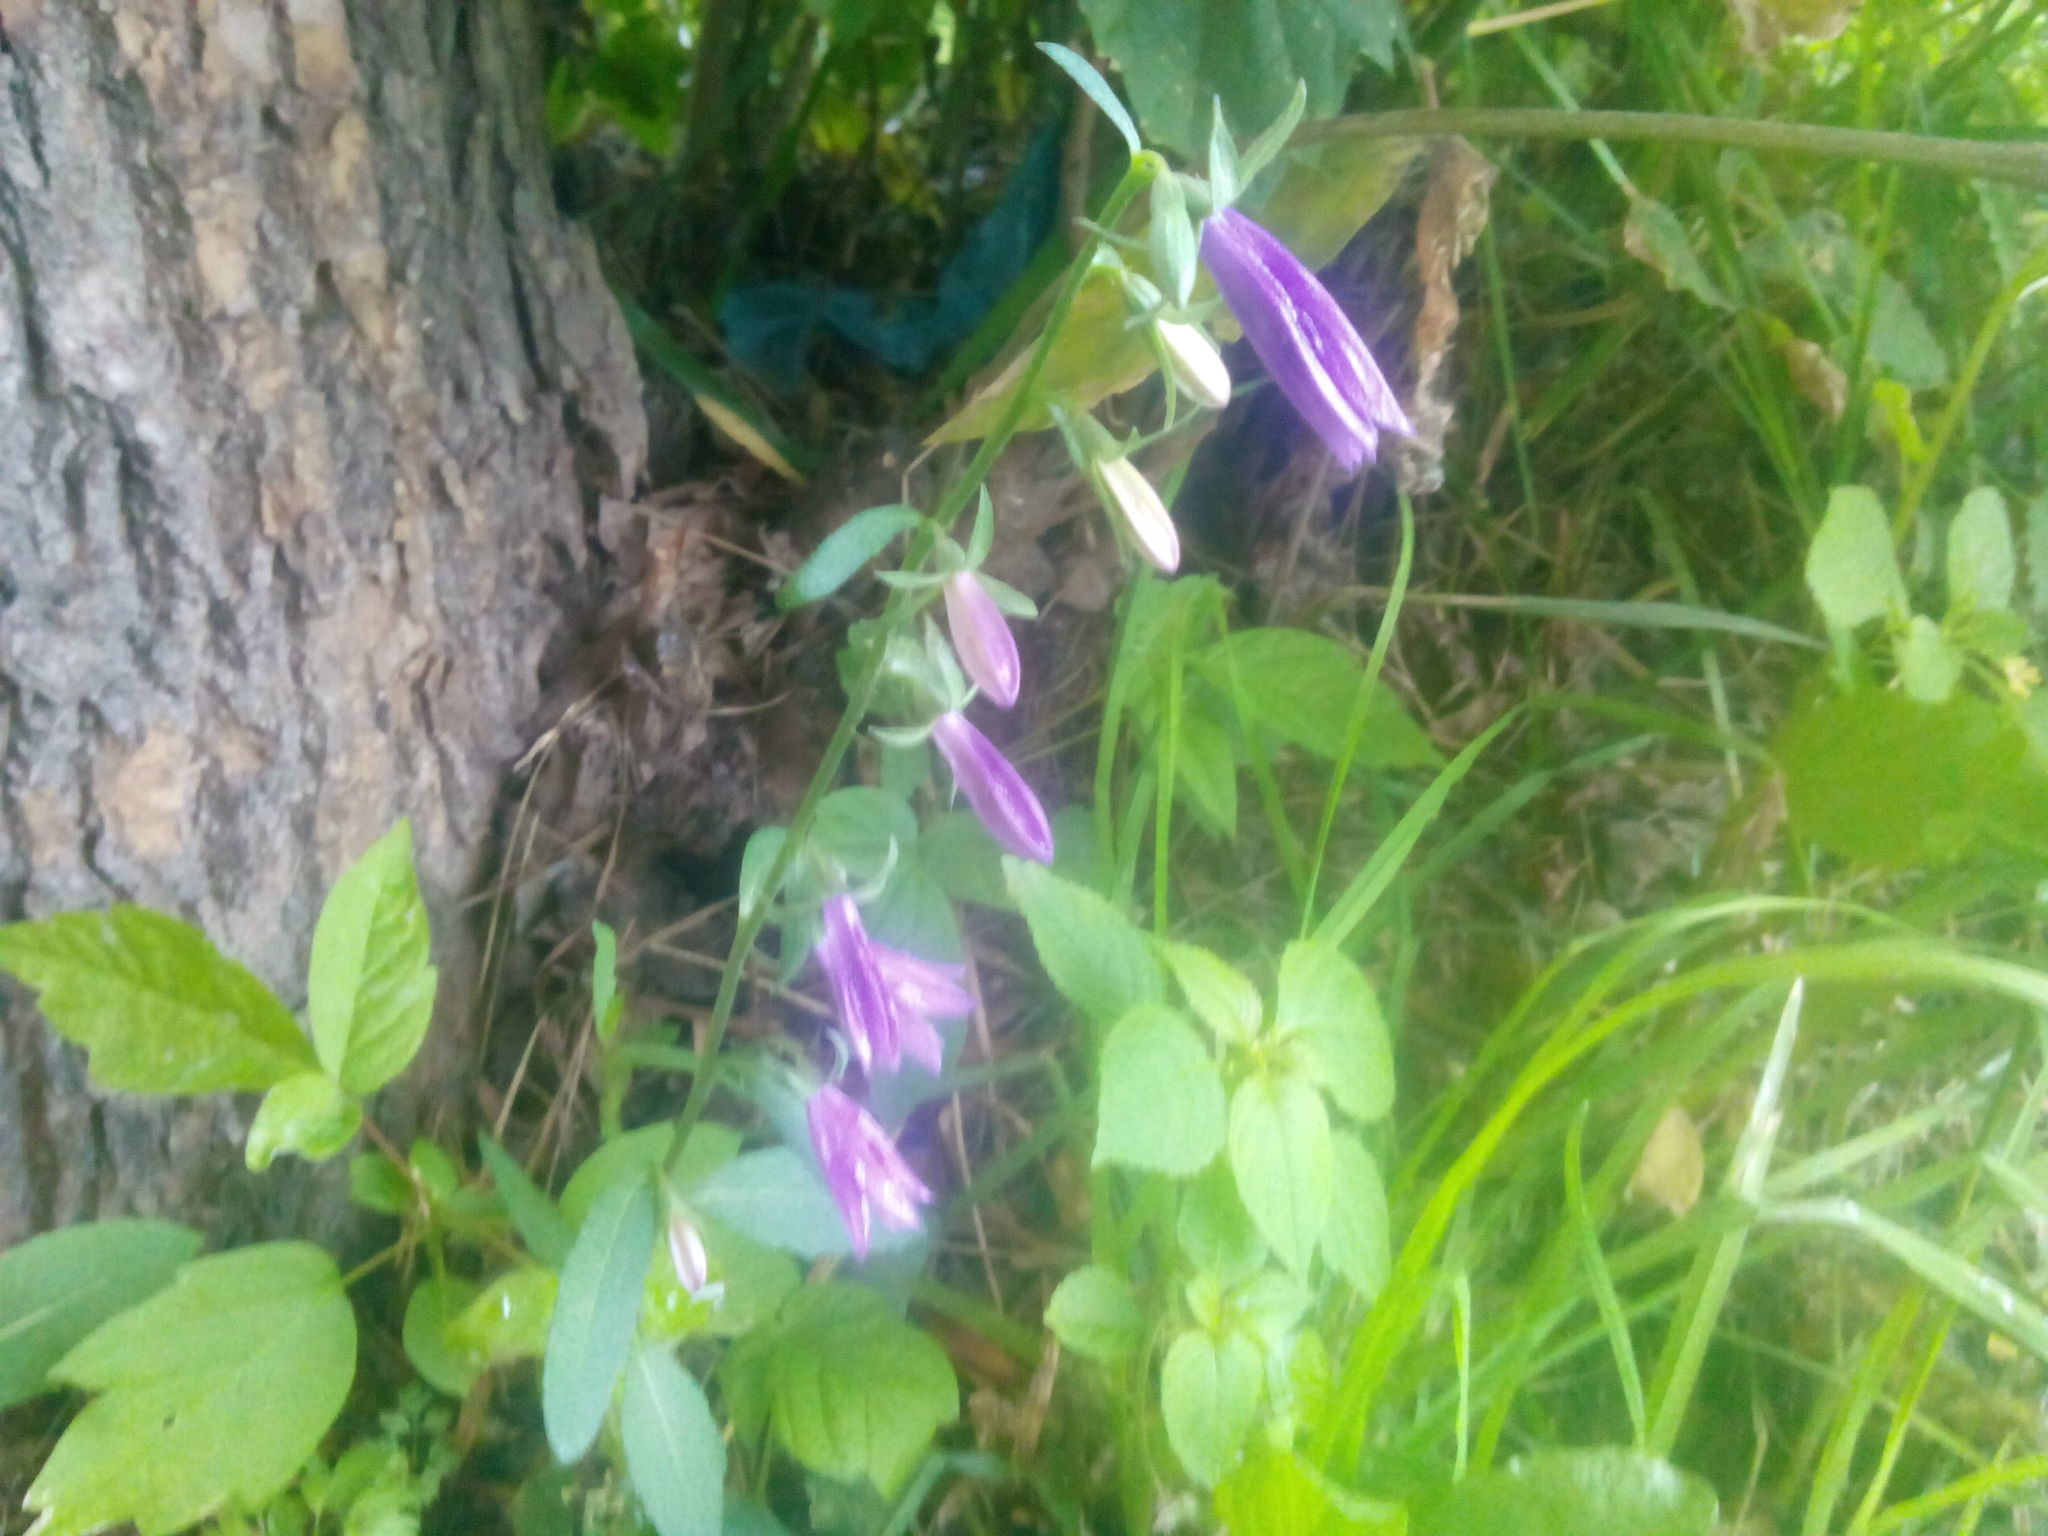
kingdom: Plantae
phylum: Tracheophyta
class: Magnoliopsida
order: Asterales
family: Campanulaceae
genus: Campanula
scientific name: Campanula rapunculoides
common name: Creeping bellflower
